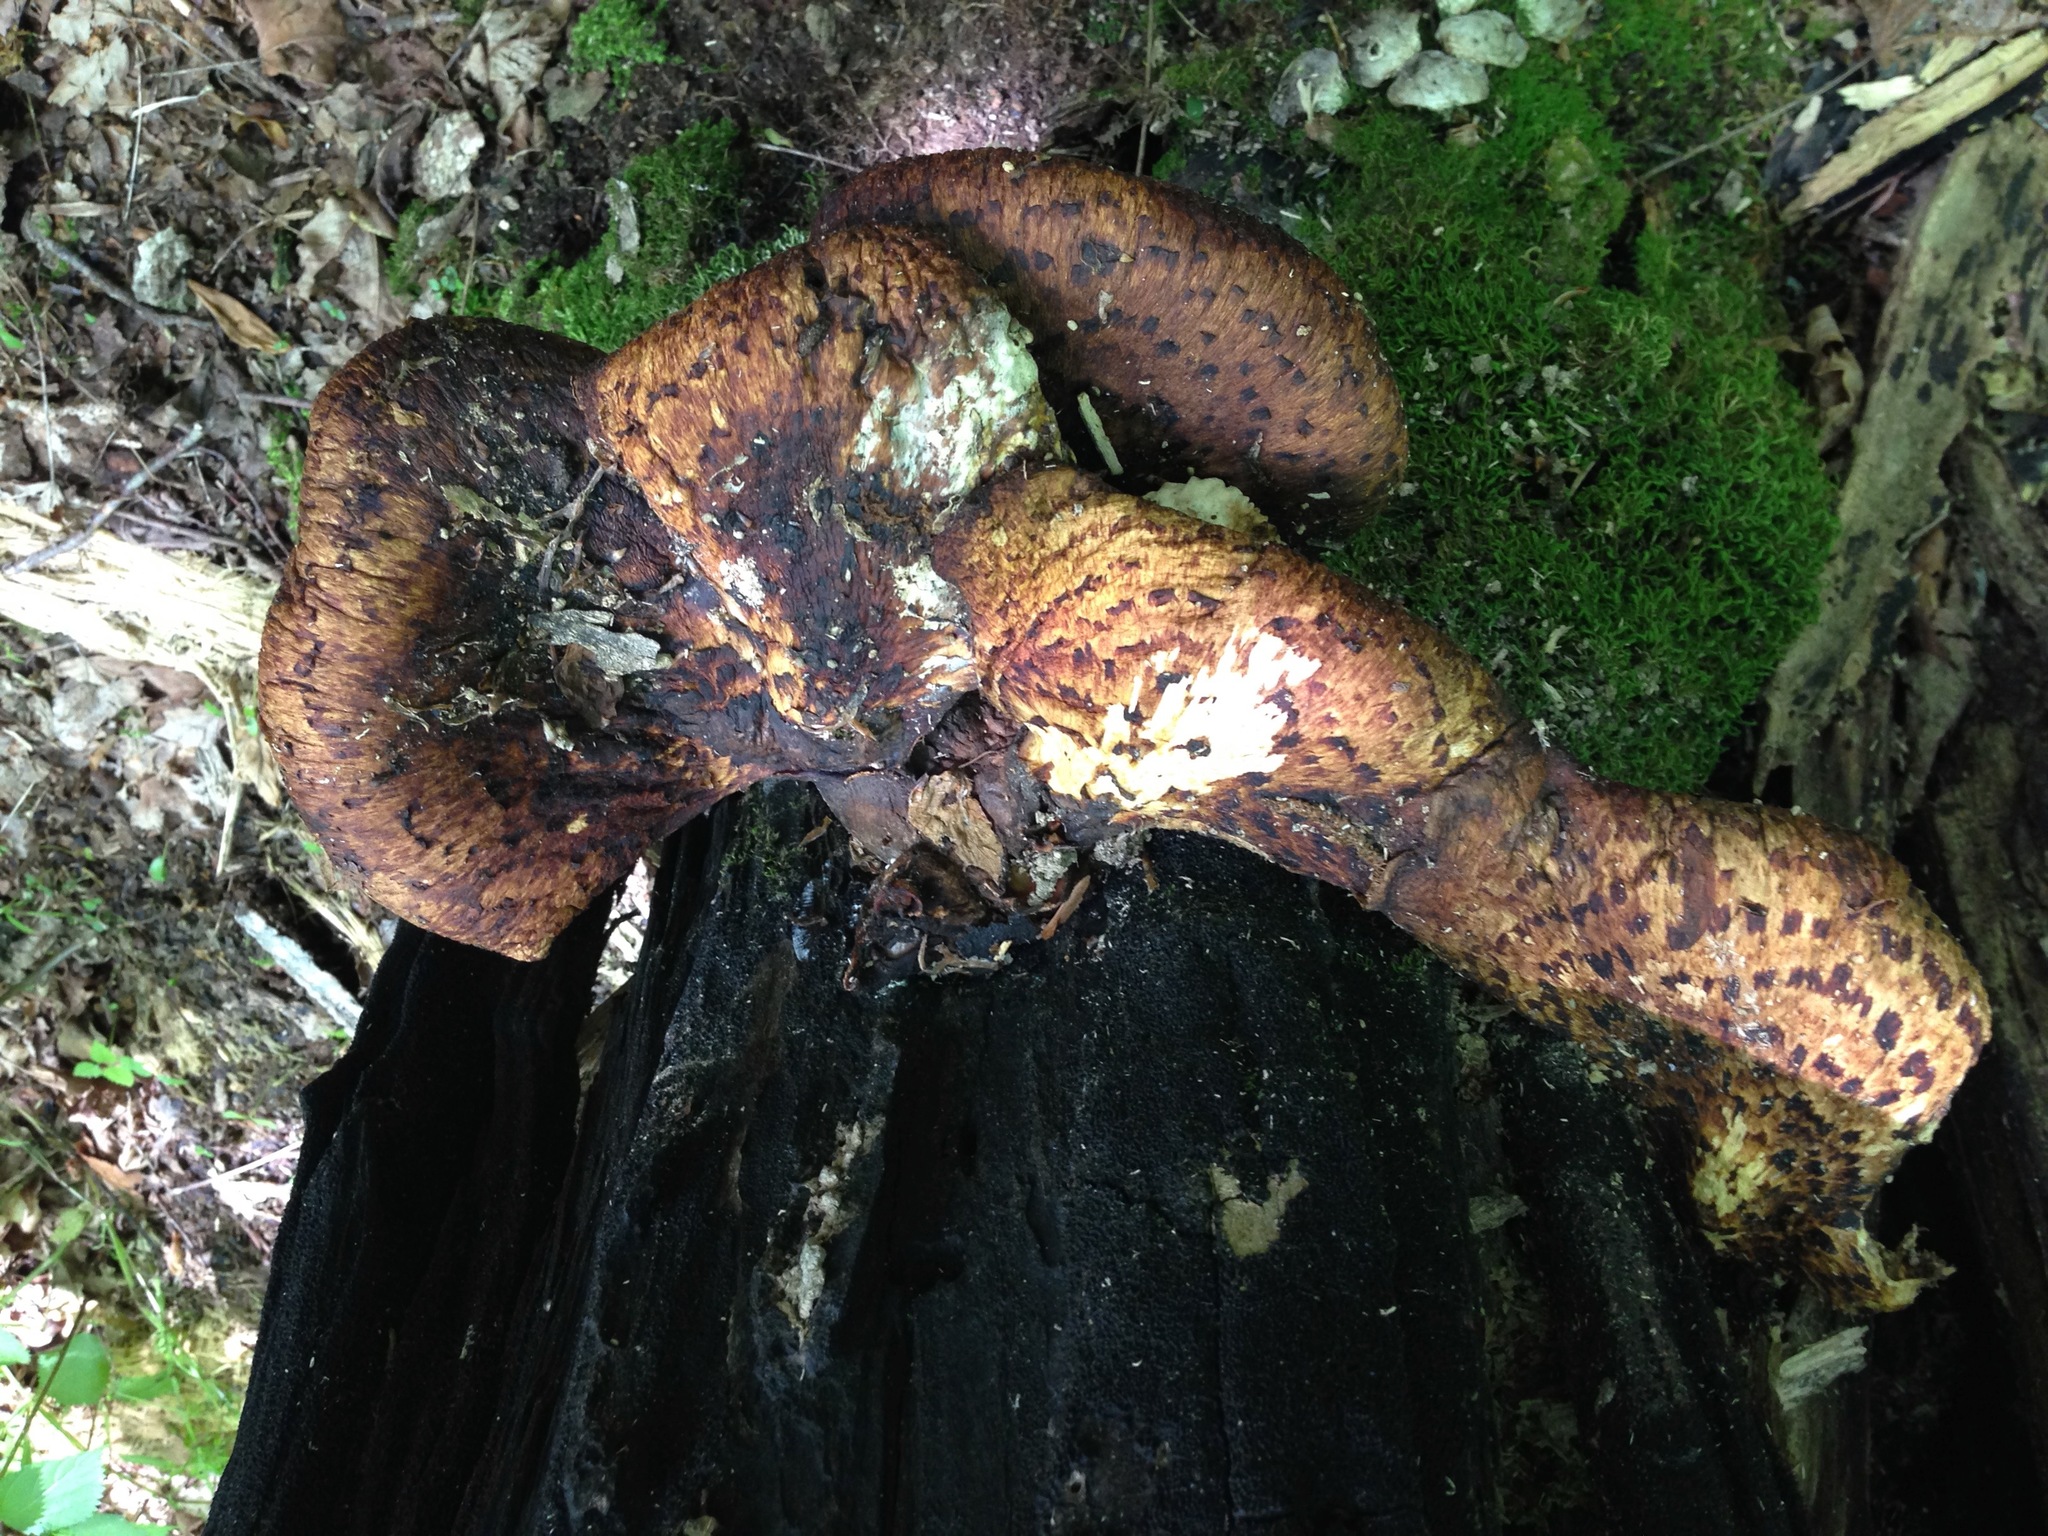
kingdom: Fungi
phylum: Basidiomycota
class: Agaricomycetes
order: Polyporales
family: Polyporaceae
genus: Cerioporus
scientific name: Cerioporus squamosus
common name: Dryad's saddle
